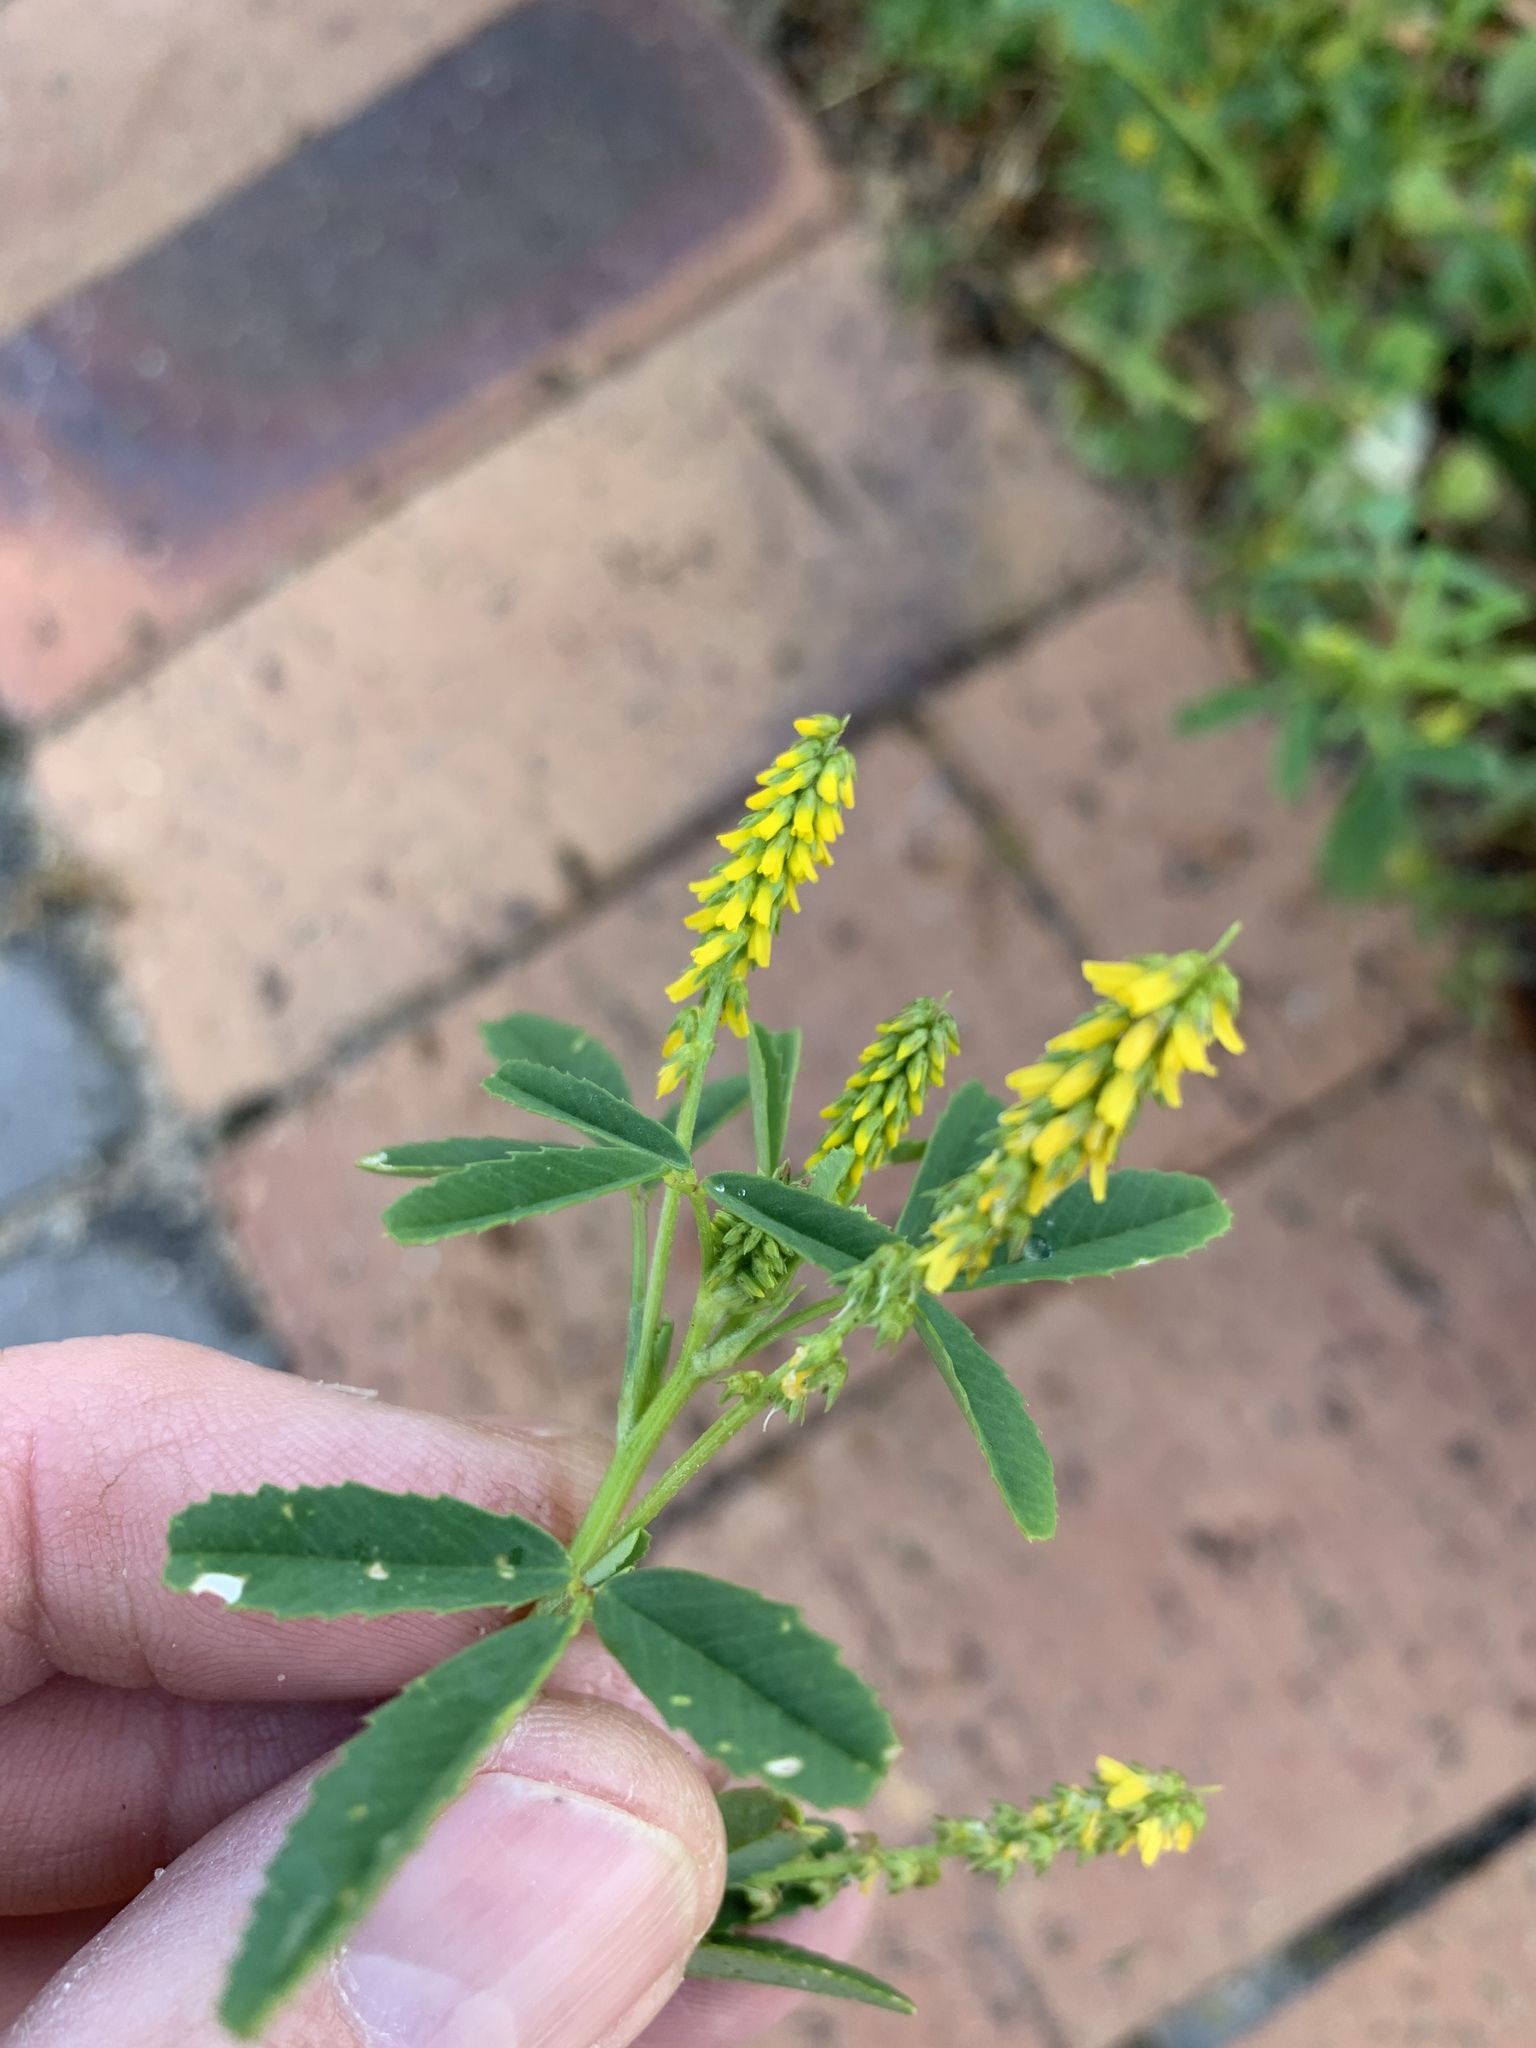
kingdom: Plantae
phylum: Tracheophyta
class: Magnoliopsida
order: Fabales
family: Fabaceae
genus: Melilotus
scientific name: Melilotus indicus
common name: Small melilot
